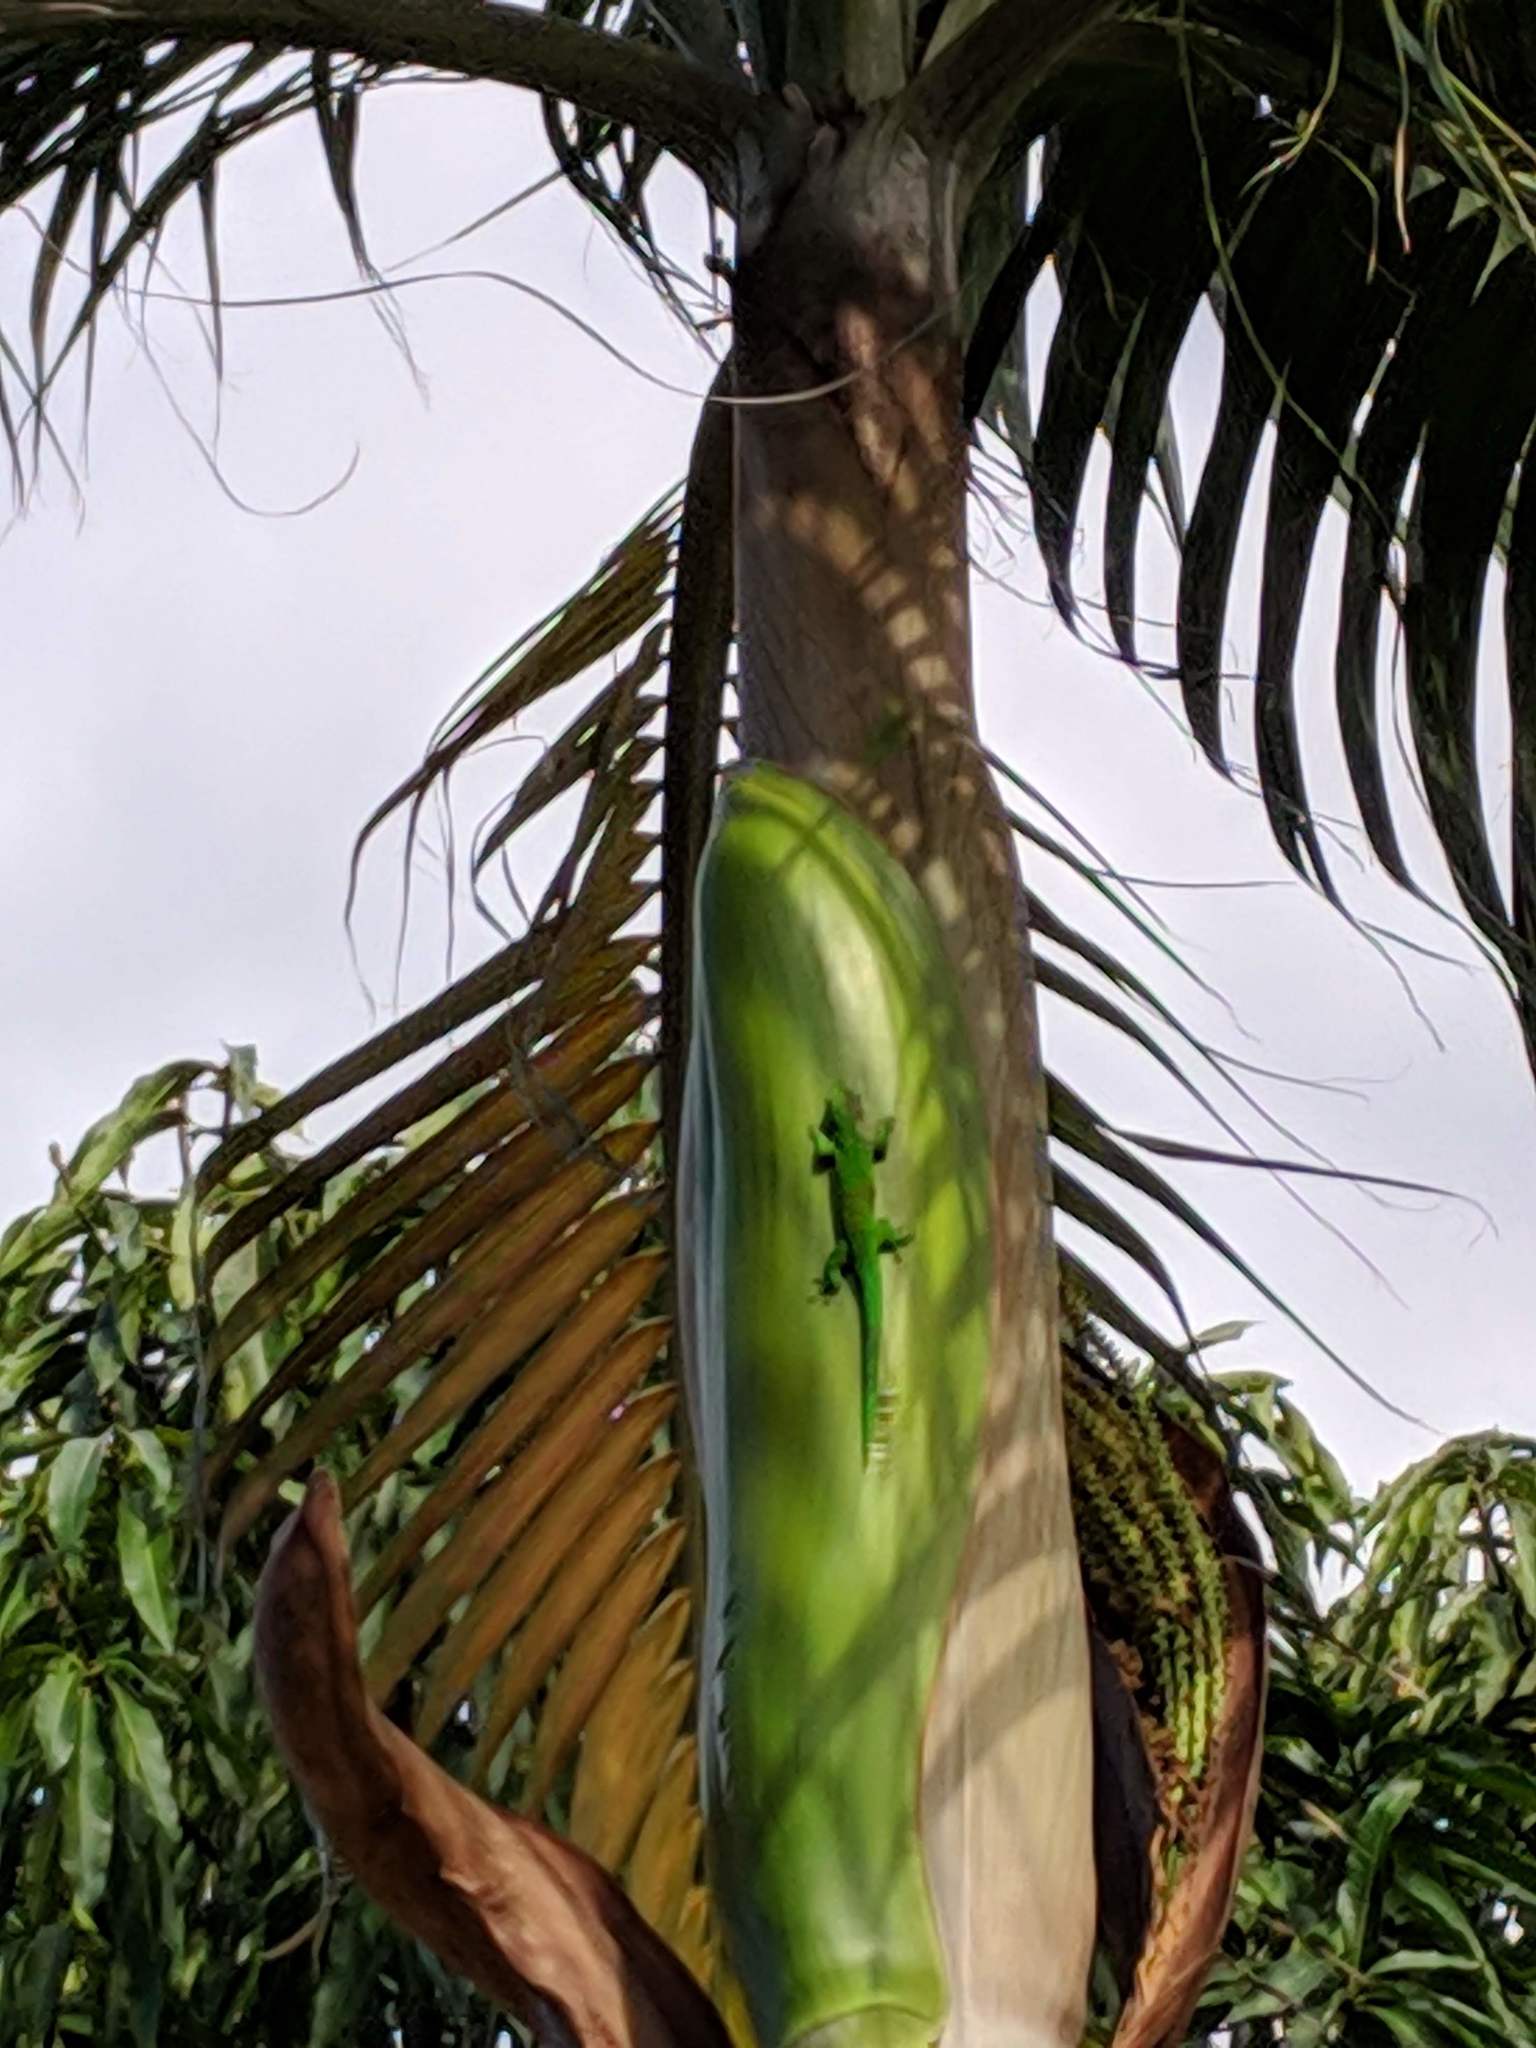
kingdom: Animalia
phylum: Chordata
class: Squamata
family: Gekkonidae
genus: Phelsuma
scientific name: Phelsuma grandis
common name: Madagascar giant day gecko
